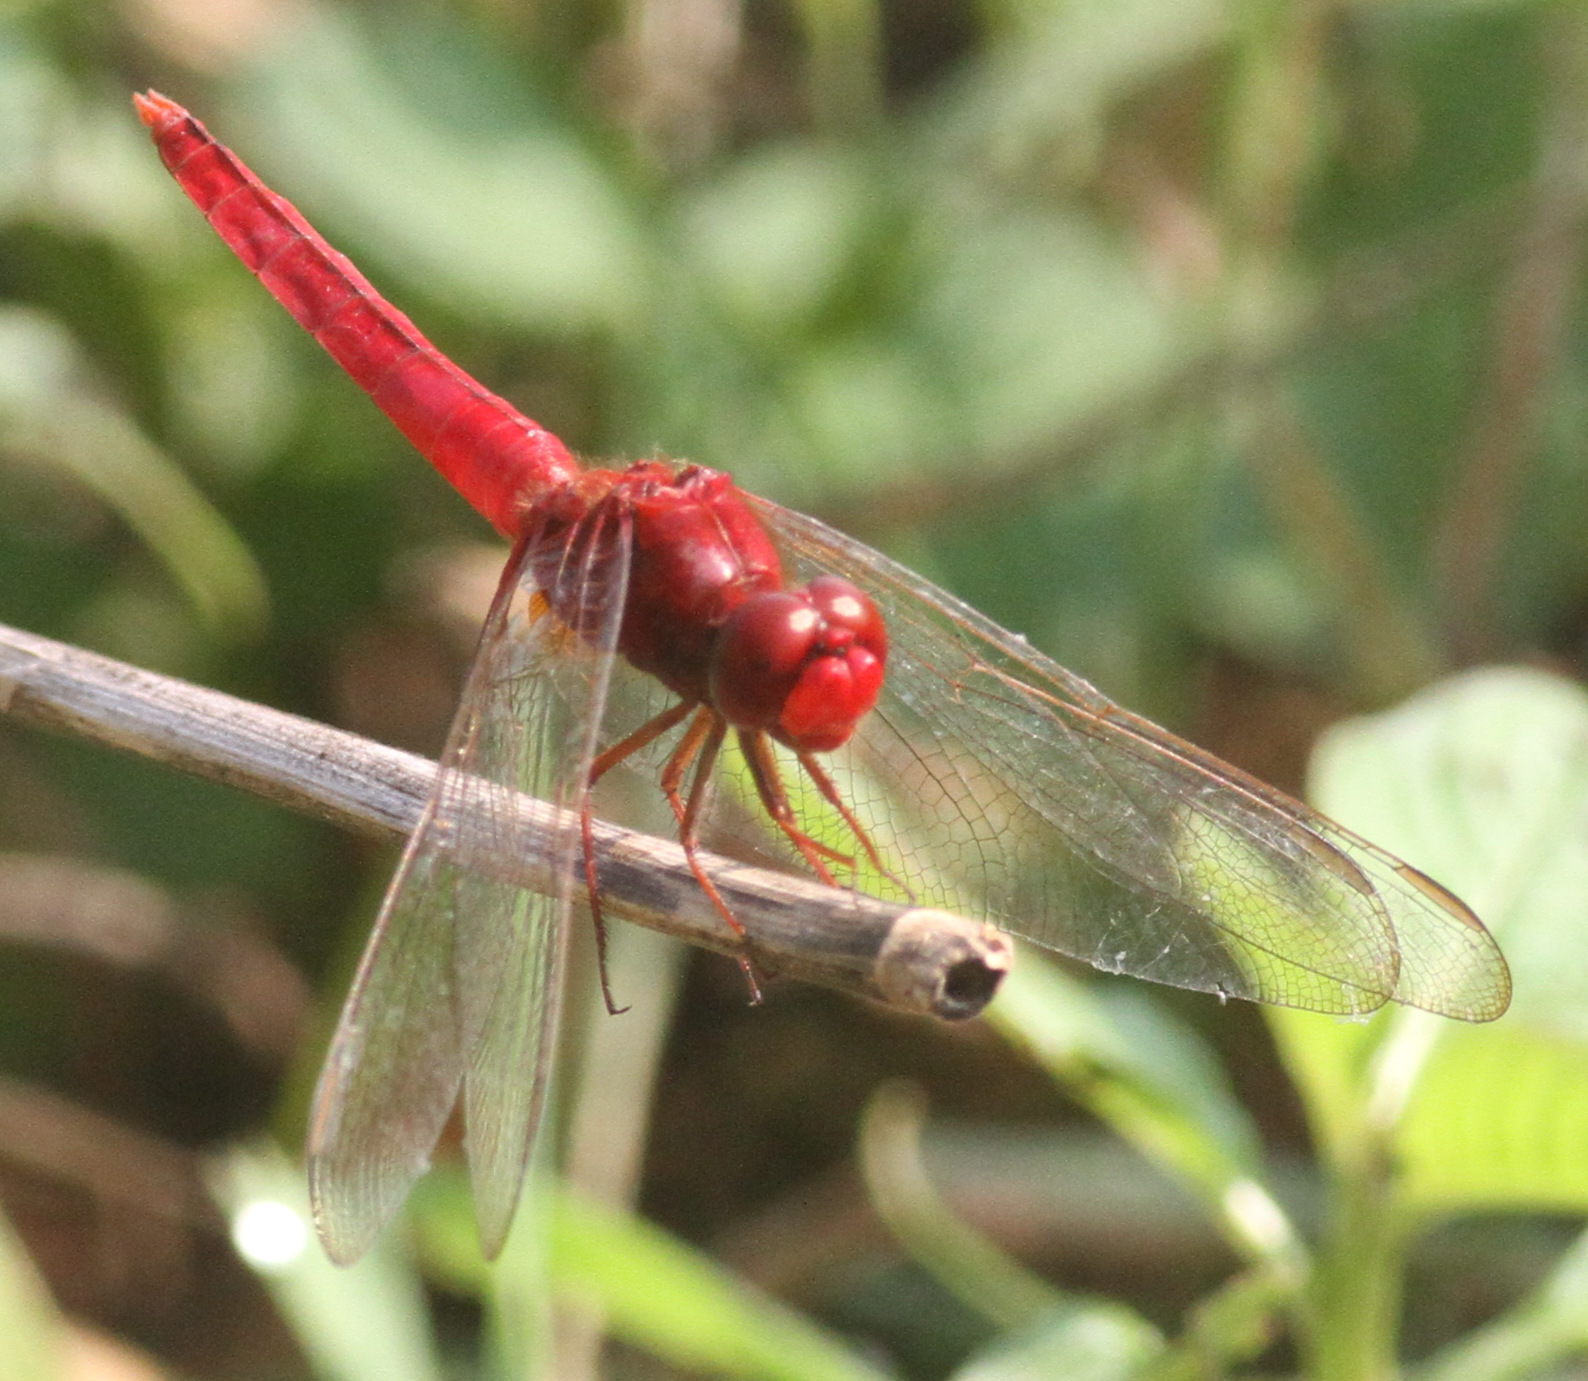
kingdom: Animalia
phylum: Arthropoda
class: Insecta
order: Odonata
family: Libellulidae
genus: Crocothemis
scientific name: Crocothemis servilia
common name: Scarlet skimmer
